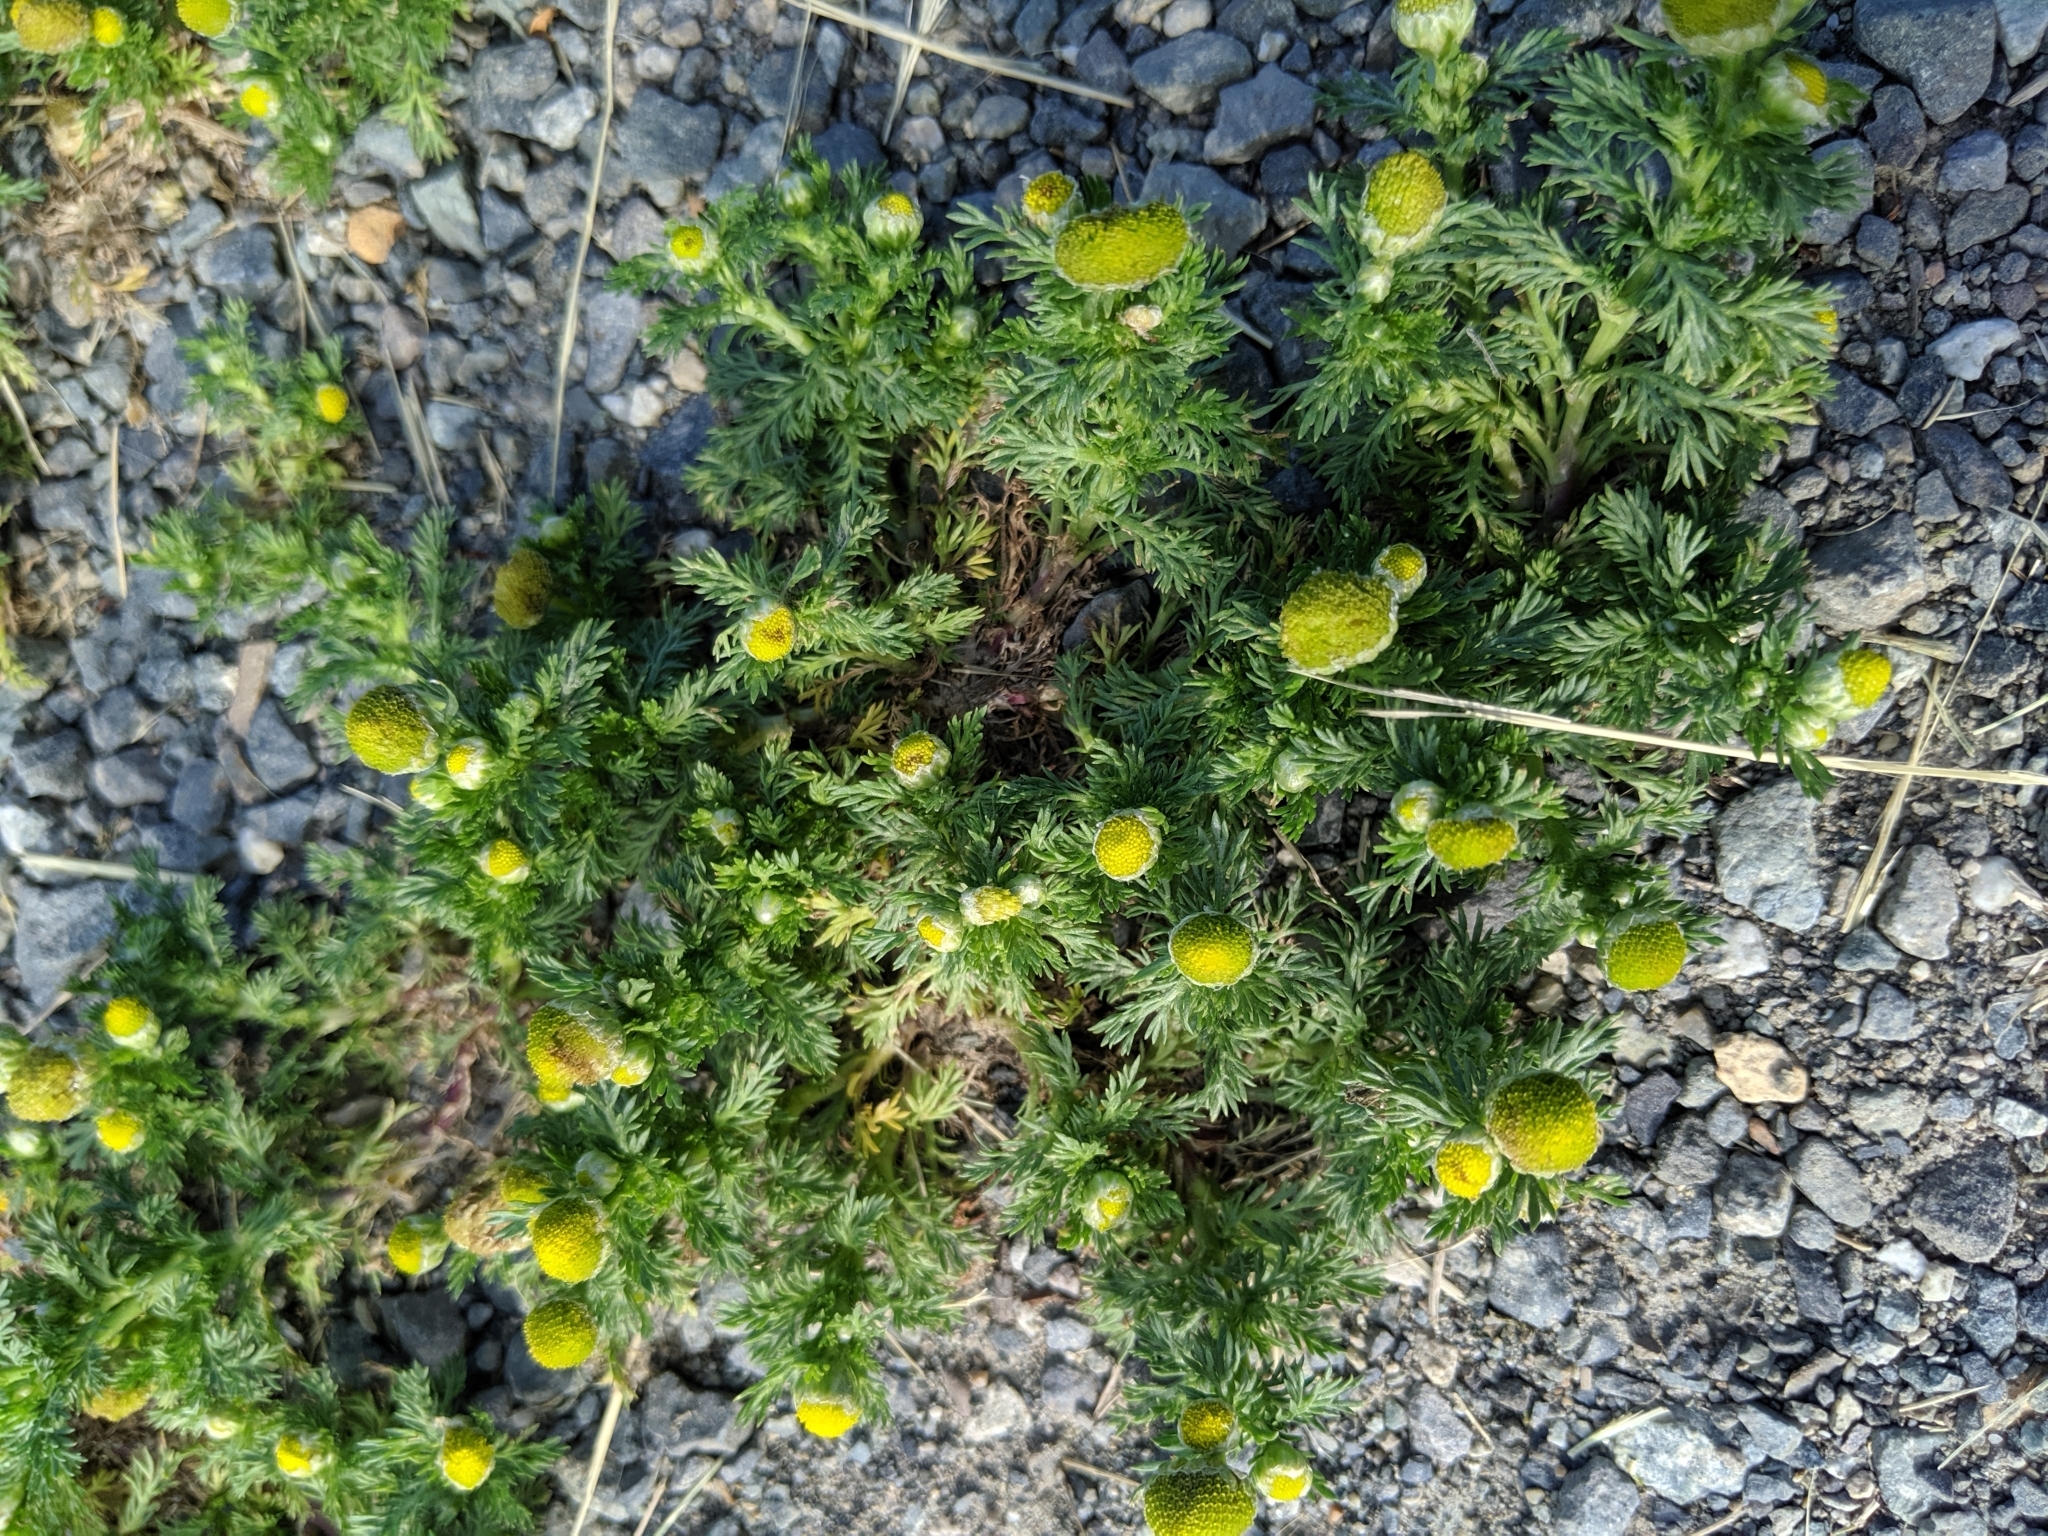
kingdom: Plantae
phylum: Tracheophyta
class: Magnoliopsida
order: Asterales
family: Asteraceae
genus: Matricaria
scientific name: Matricaria discoidea
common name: Disc mayweed
